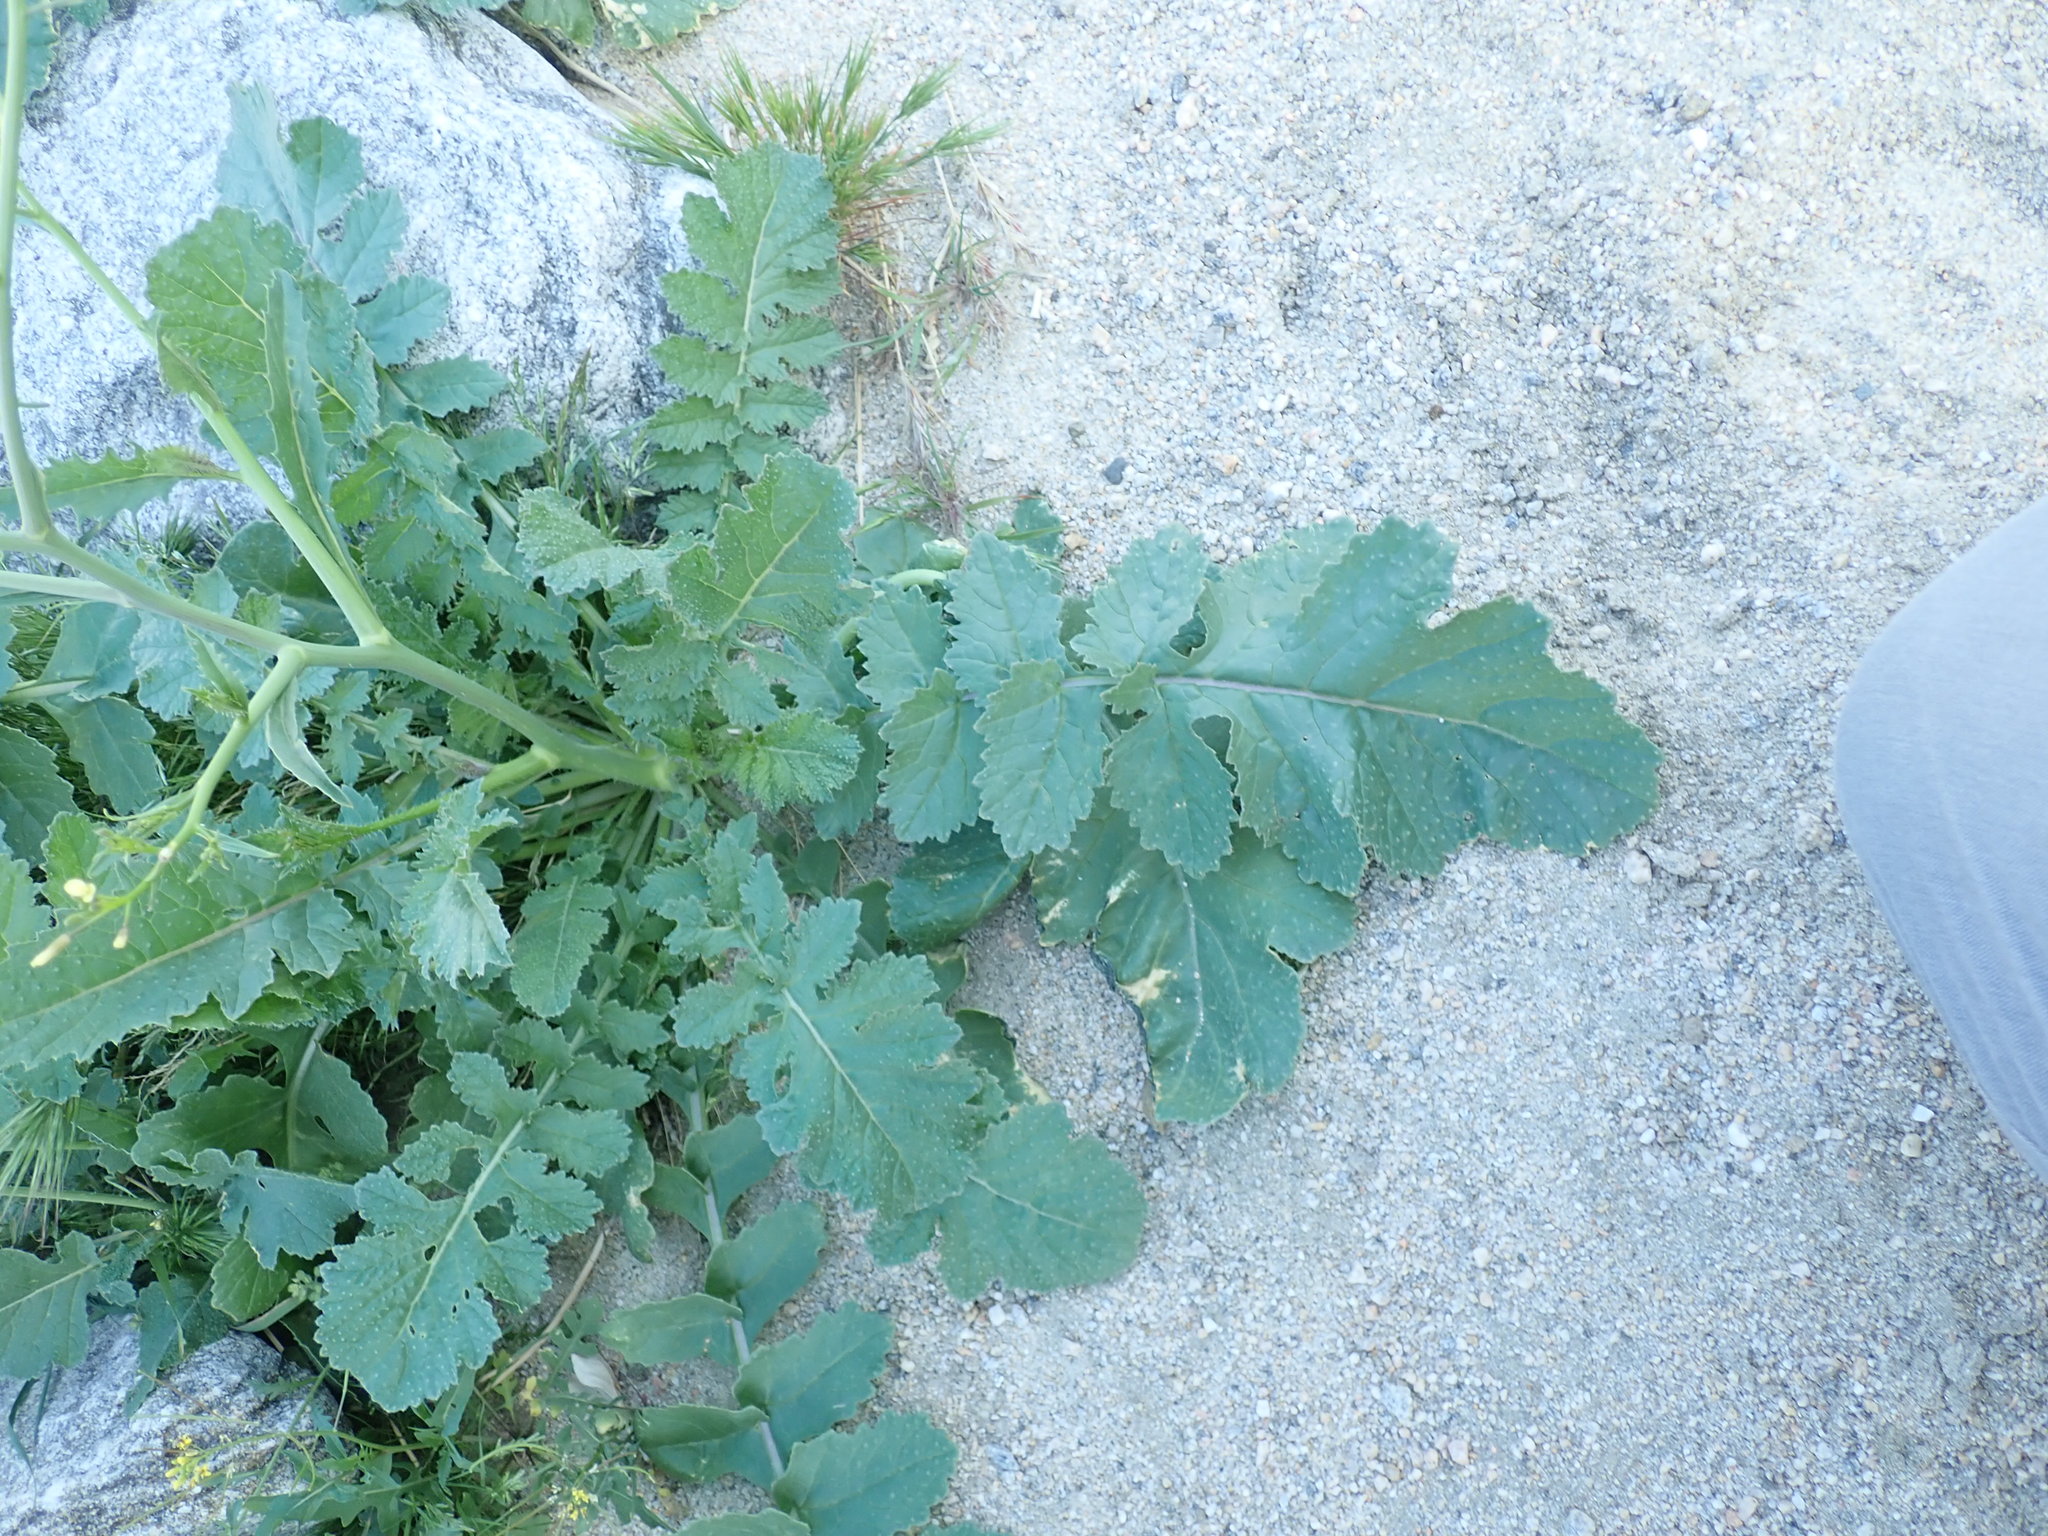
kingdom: Plantae
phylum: Tracheophyta
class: Magnoliopsida
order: Brassicales
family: Brassicaceae
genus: Brassica
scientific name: Brassica tournefortii
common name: Pale cabbage
